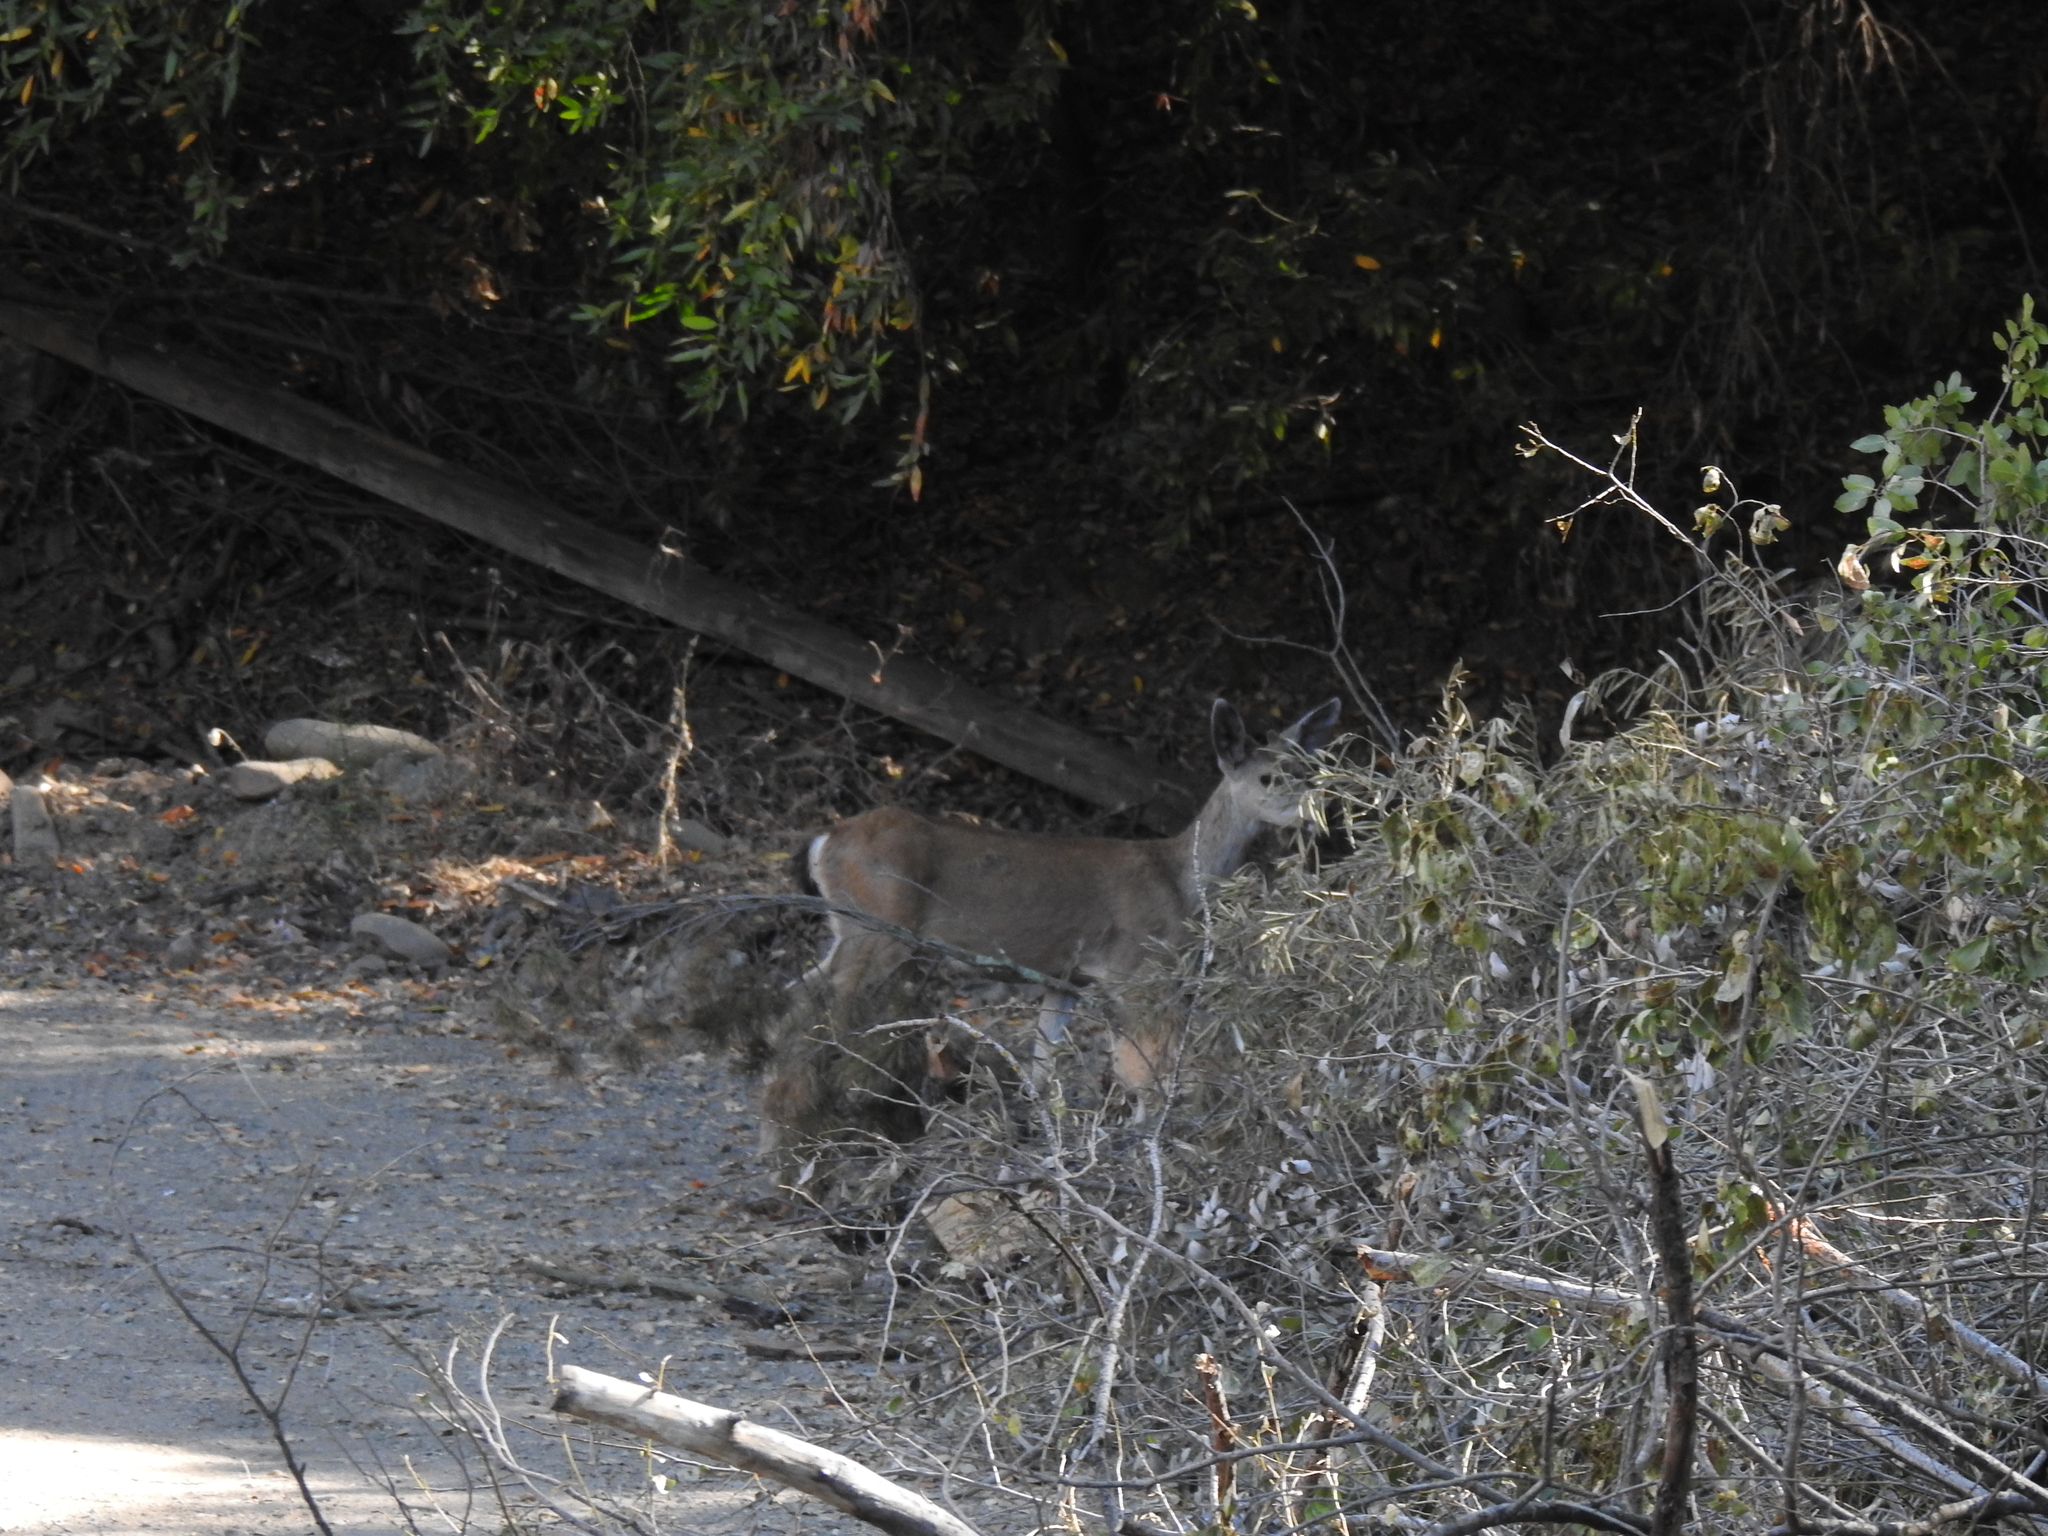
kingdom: Animalia
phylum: Chordata
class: Mammalia
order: Artiodactyla
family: Cervidae
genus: Odocoileus
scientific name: Odocoileus hemionus
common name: Mule deer
